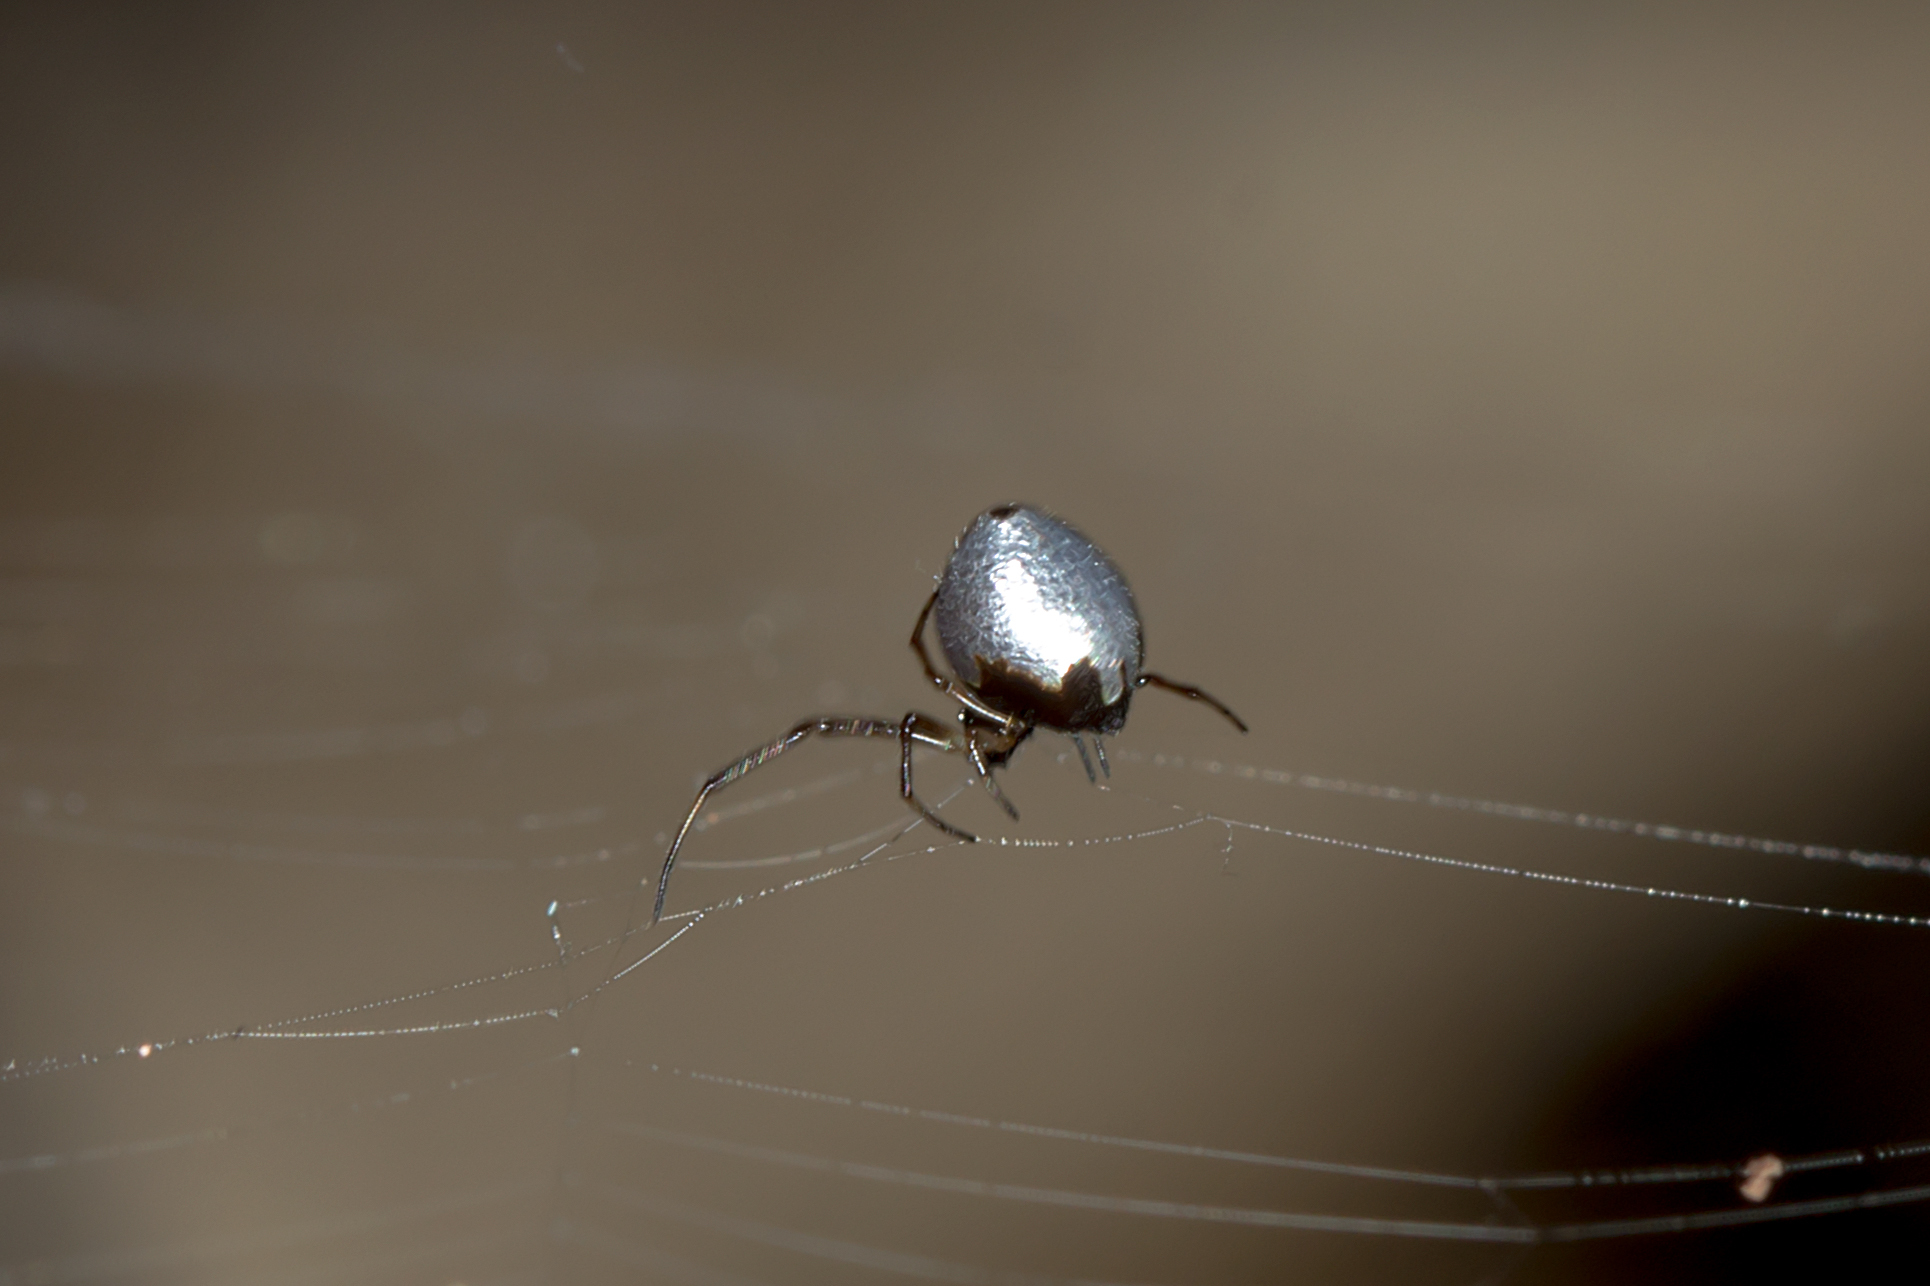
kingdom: Animalia
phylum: Arthropoda
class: Arachnida
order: Araneae
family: Theridiidae
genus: Argyrodes
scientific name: Argyrodes antipodianus
